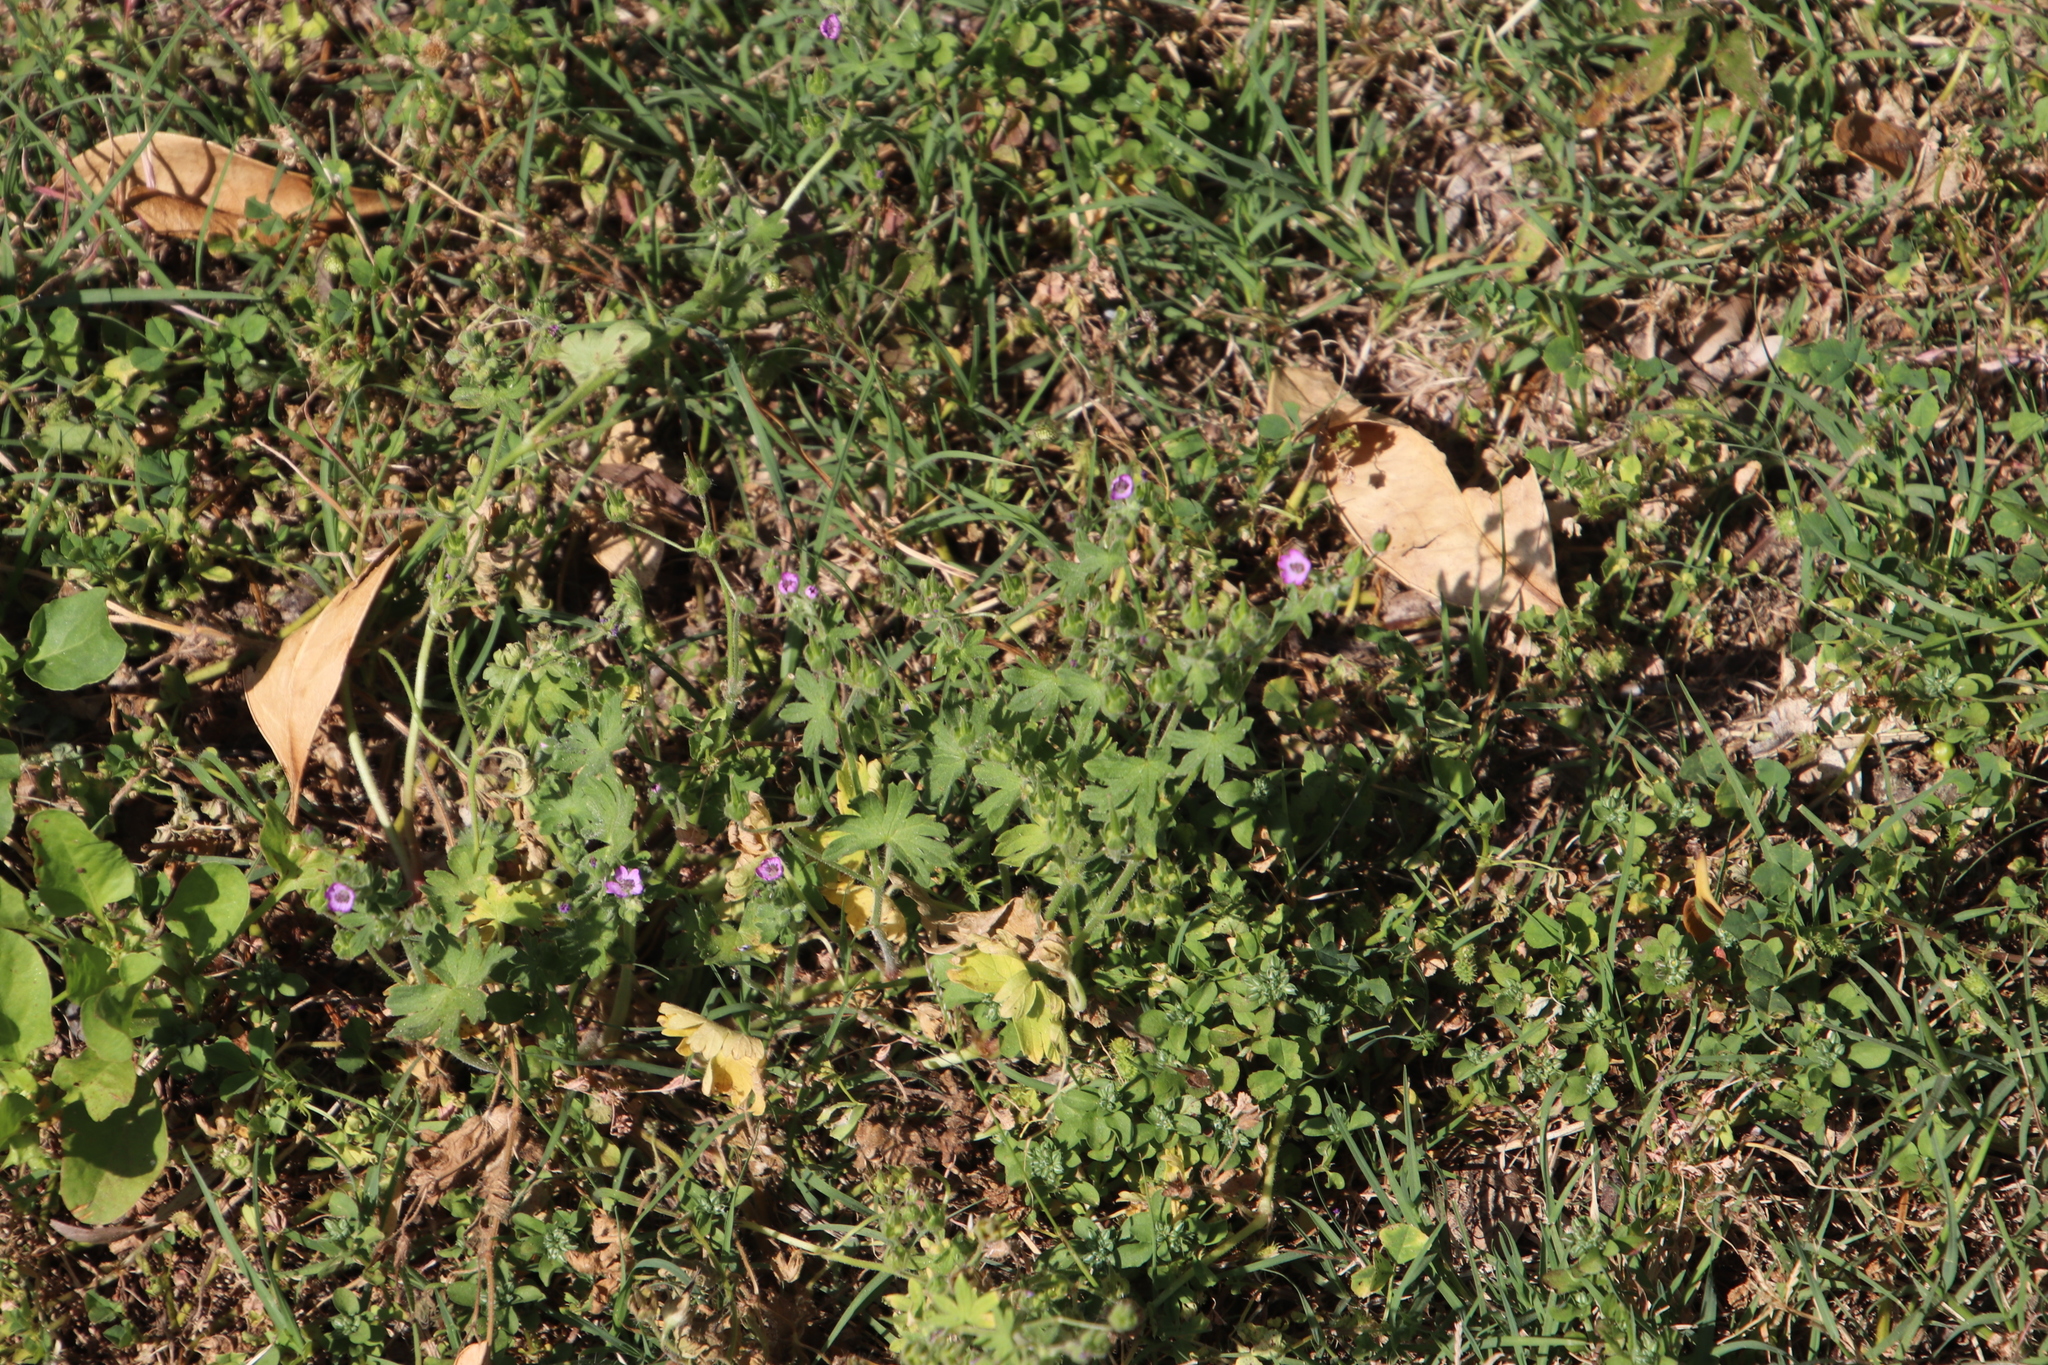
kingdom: Plantae
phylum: Tracheophyta
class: Magnoliopsida
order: Geraniales
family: Geraniaceae
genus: Geranium
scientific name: Geranium molle
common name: Dove's-foot crane's-bill
